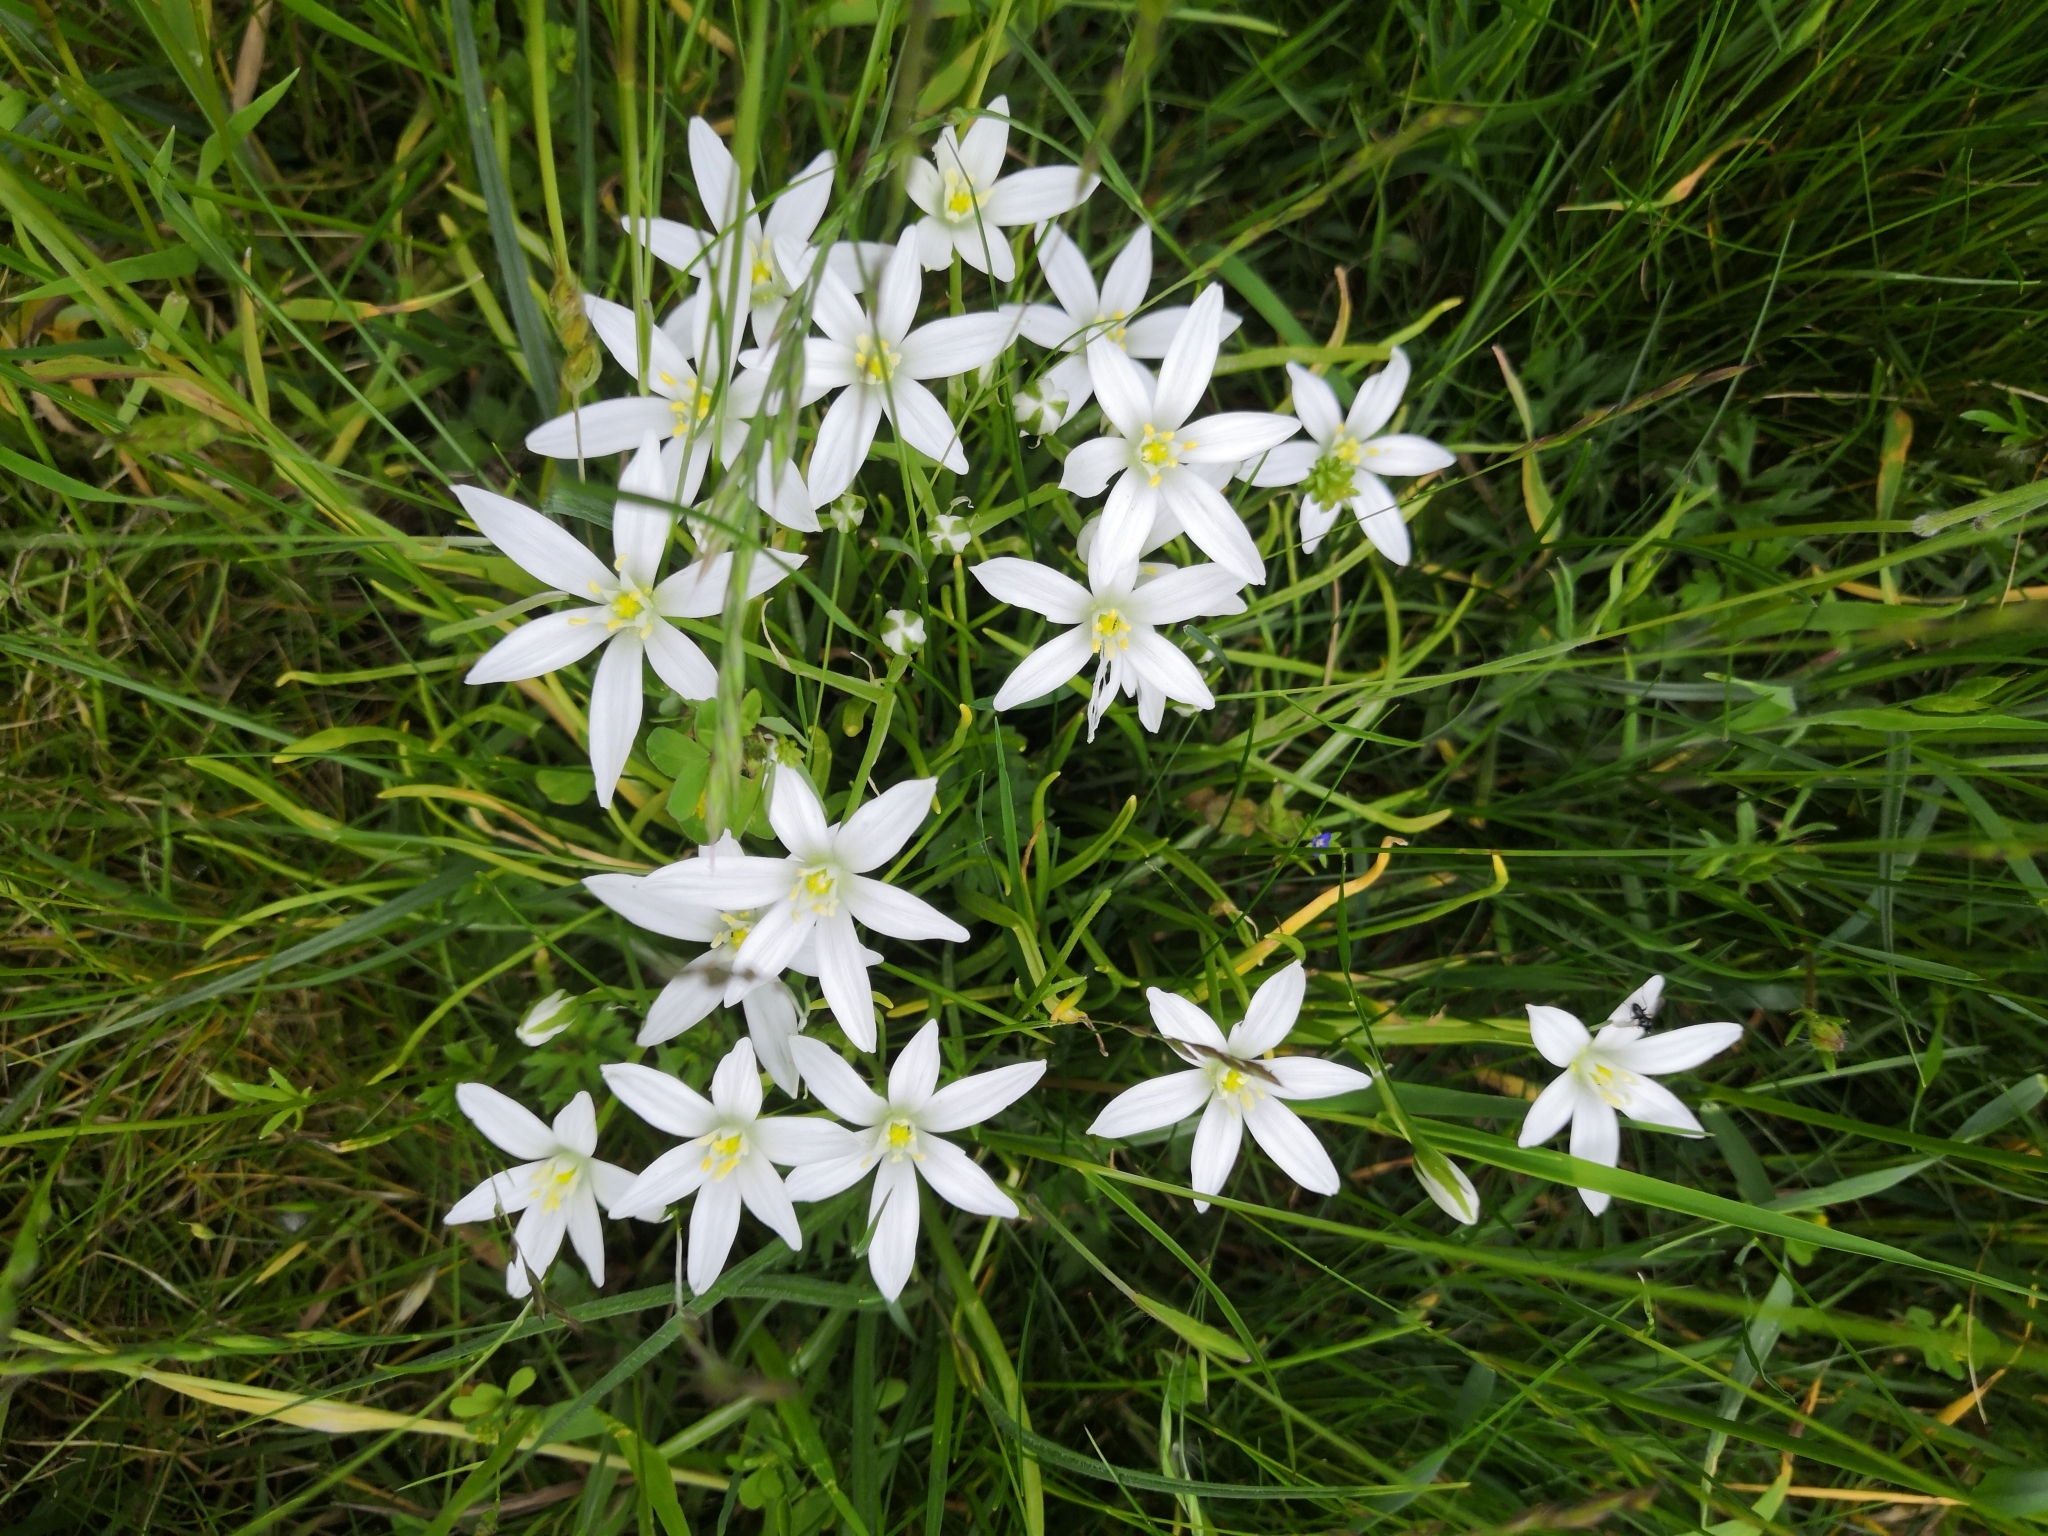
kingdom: Plantae
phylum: Tracheophyta
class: Liliopsida
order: Asparagales
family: Asparagaceae
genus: Ornithogalum
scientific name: Ornithogalum umbellatum
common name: Garden star-of-bethlehem
